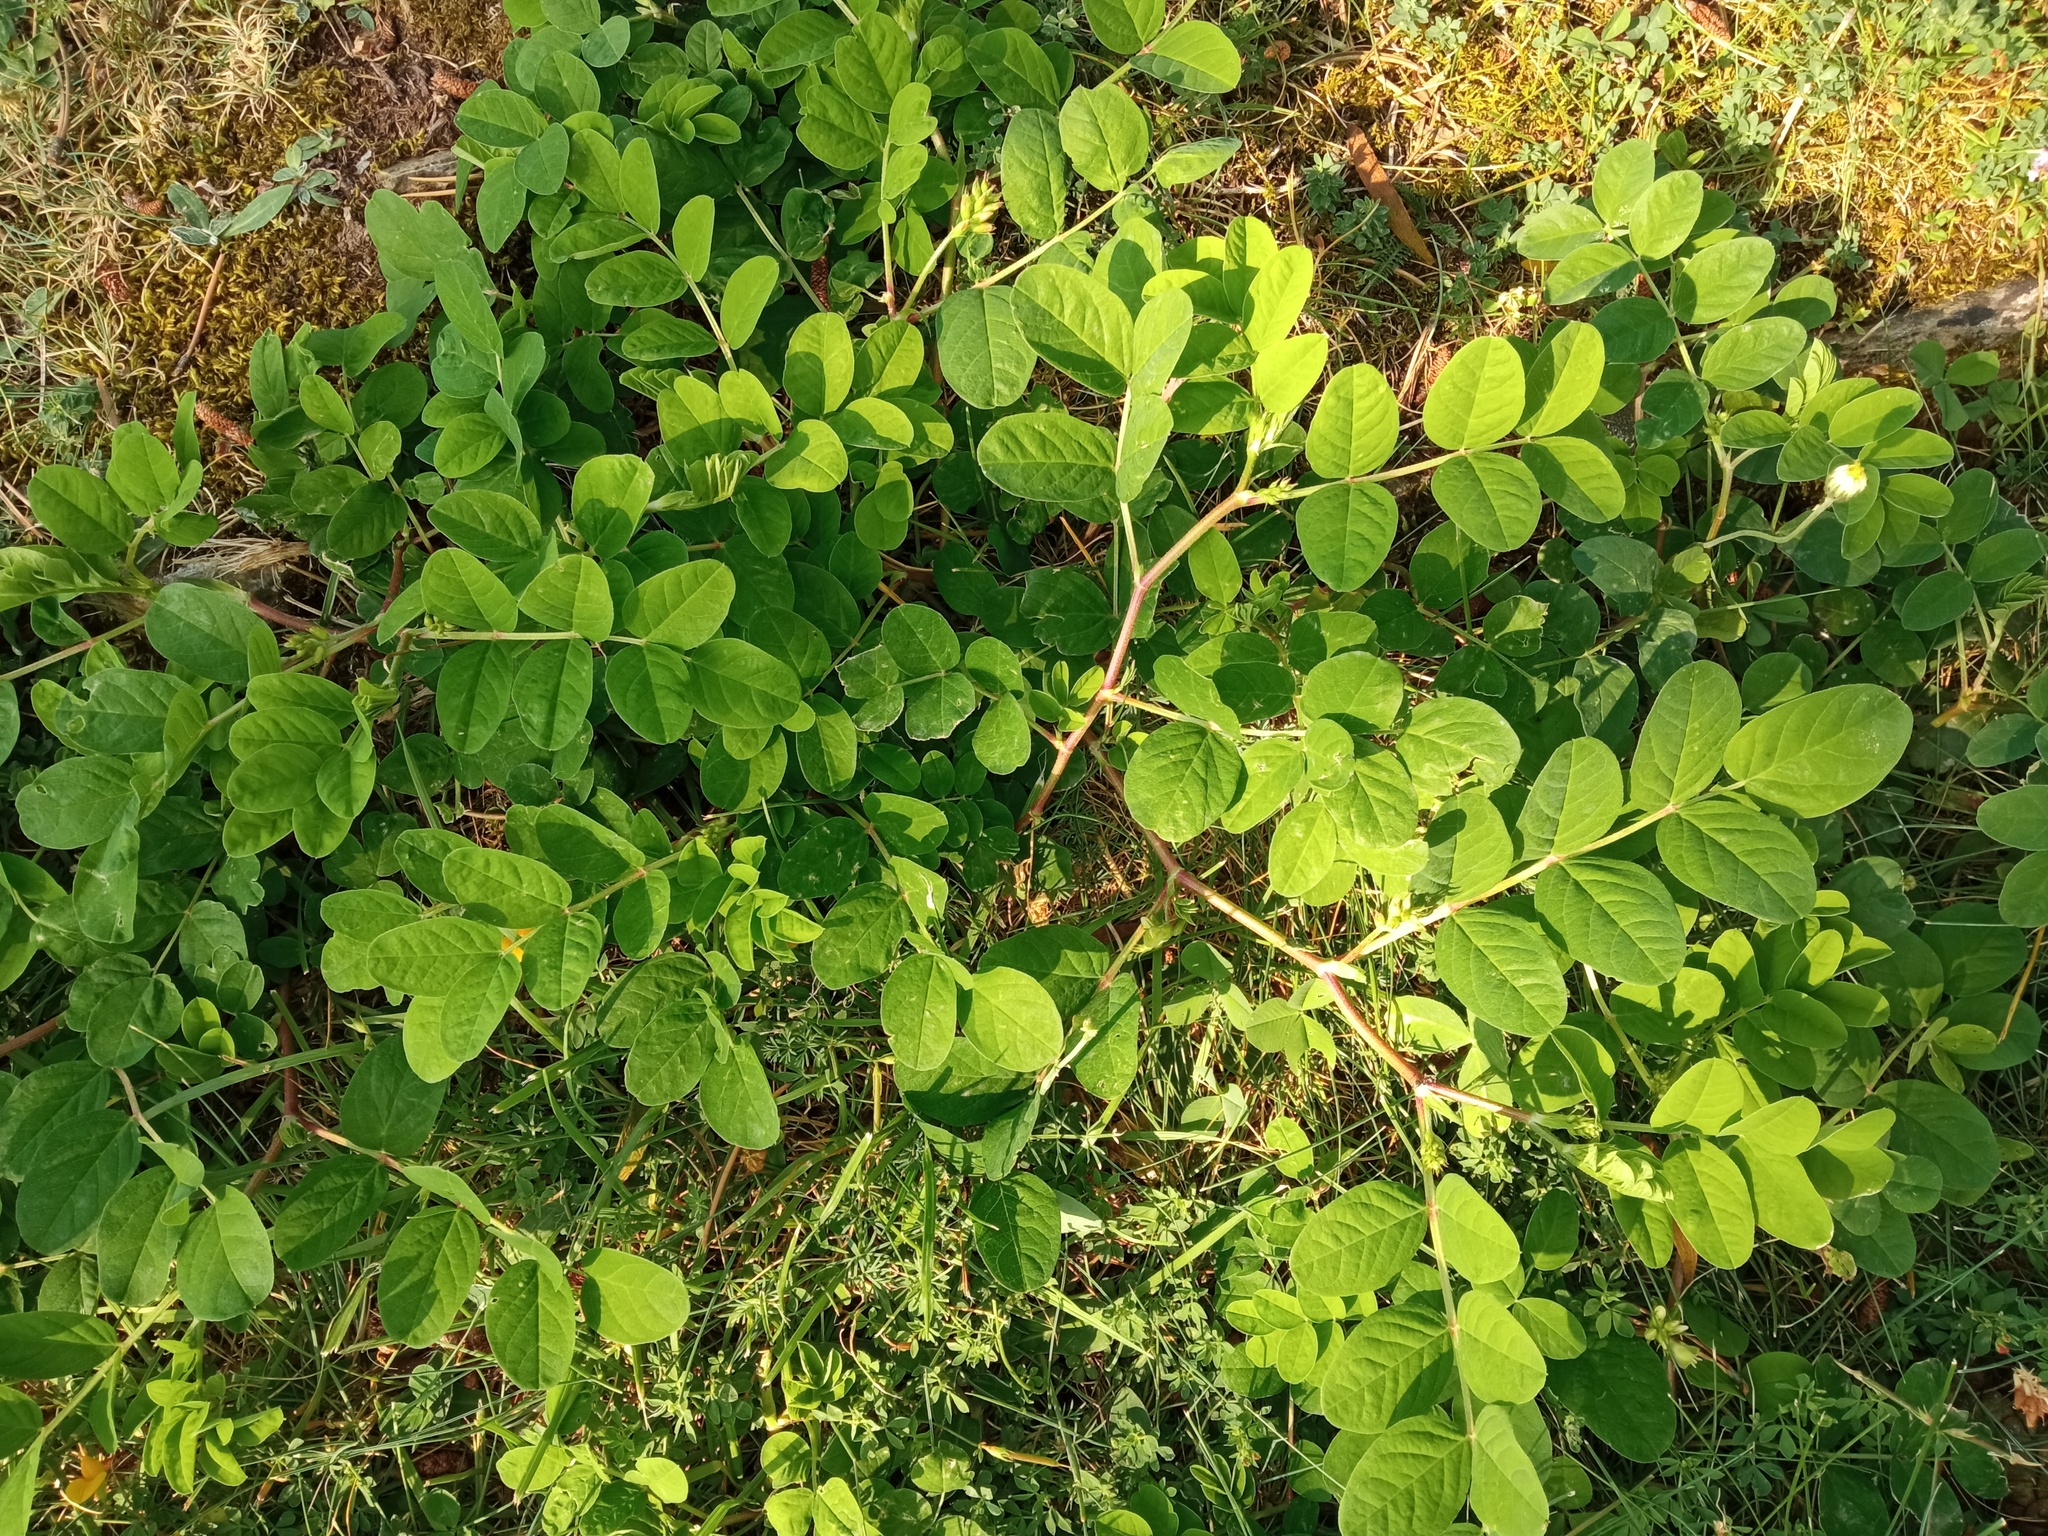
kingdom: Plantae
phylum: Tracheophyta
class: Magnoliopsida
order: Fabales
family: Fabaceae
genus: Astragalus
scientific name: Astragalus glycyphyllos
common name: Wild liquorice
